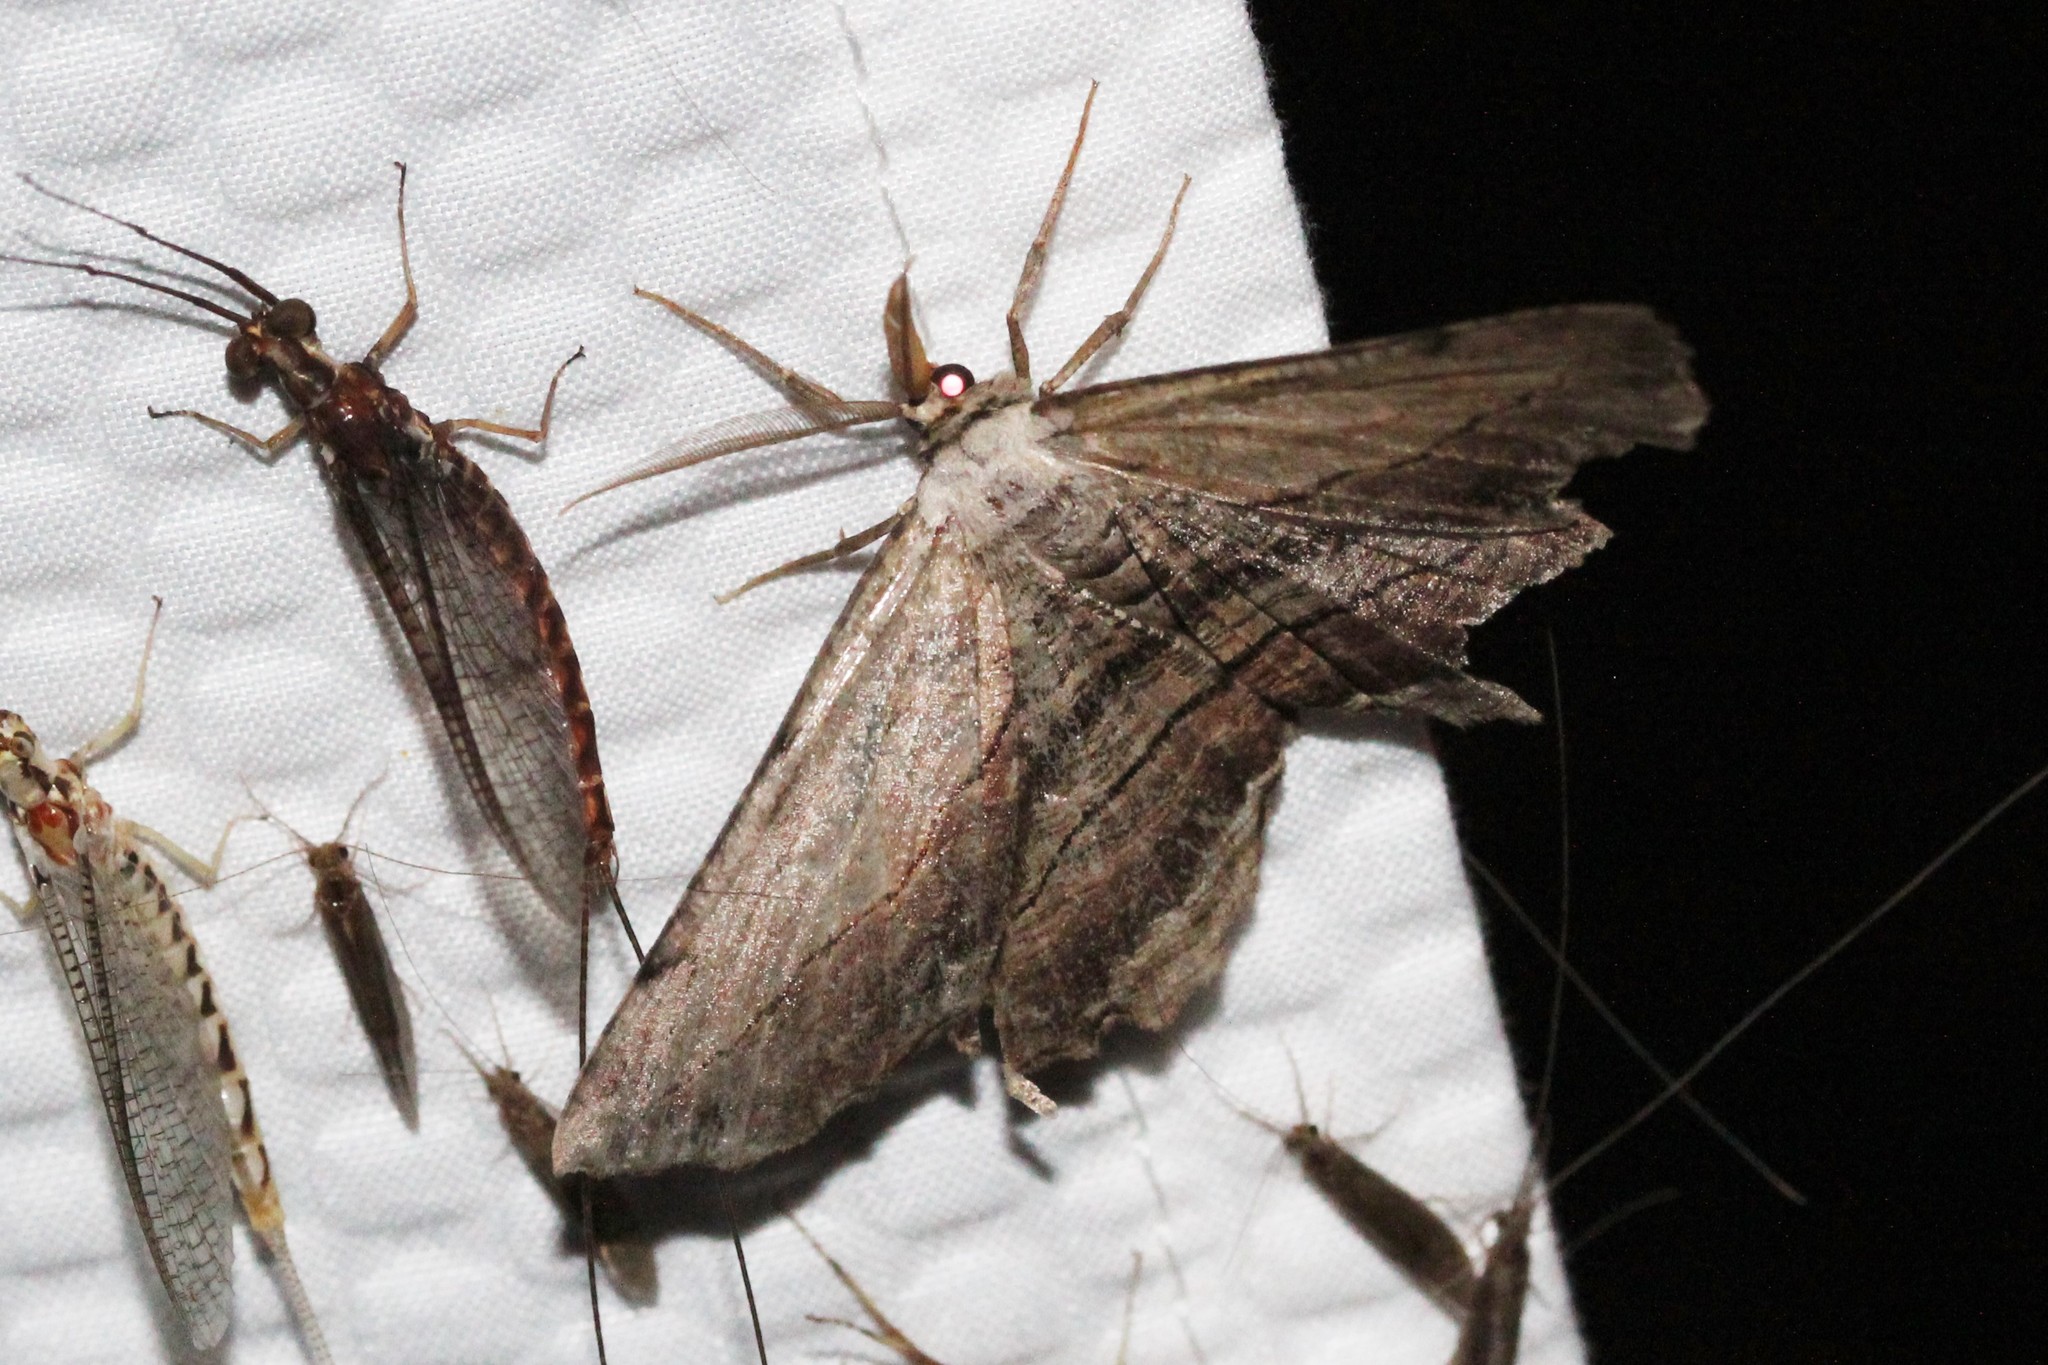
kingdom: Animalia
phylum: Arthropoda
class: Insecta
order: Lepidoptera
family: Geometridae
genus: Lytrosis
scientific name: Lytrosis unitaria
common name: Common lytrosis
